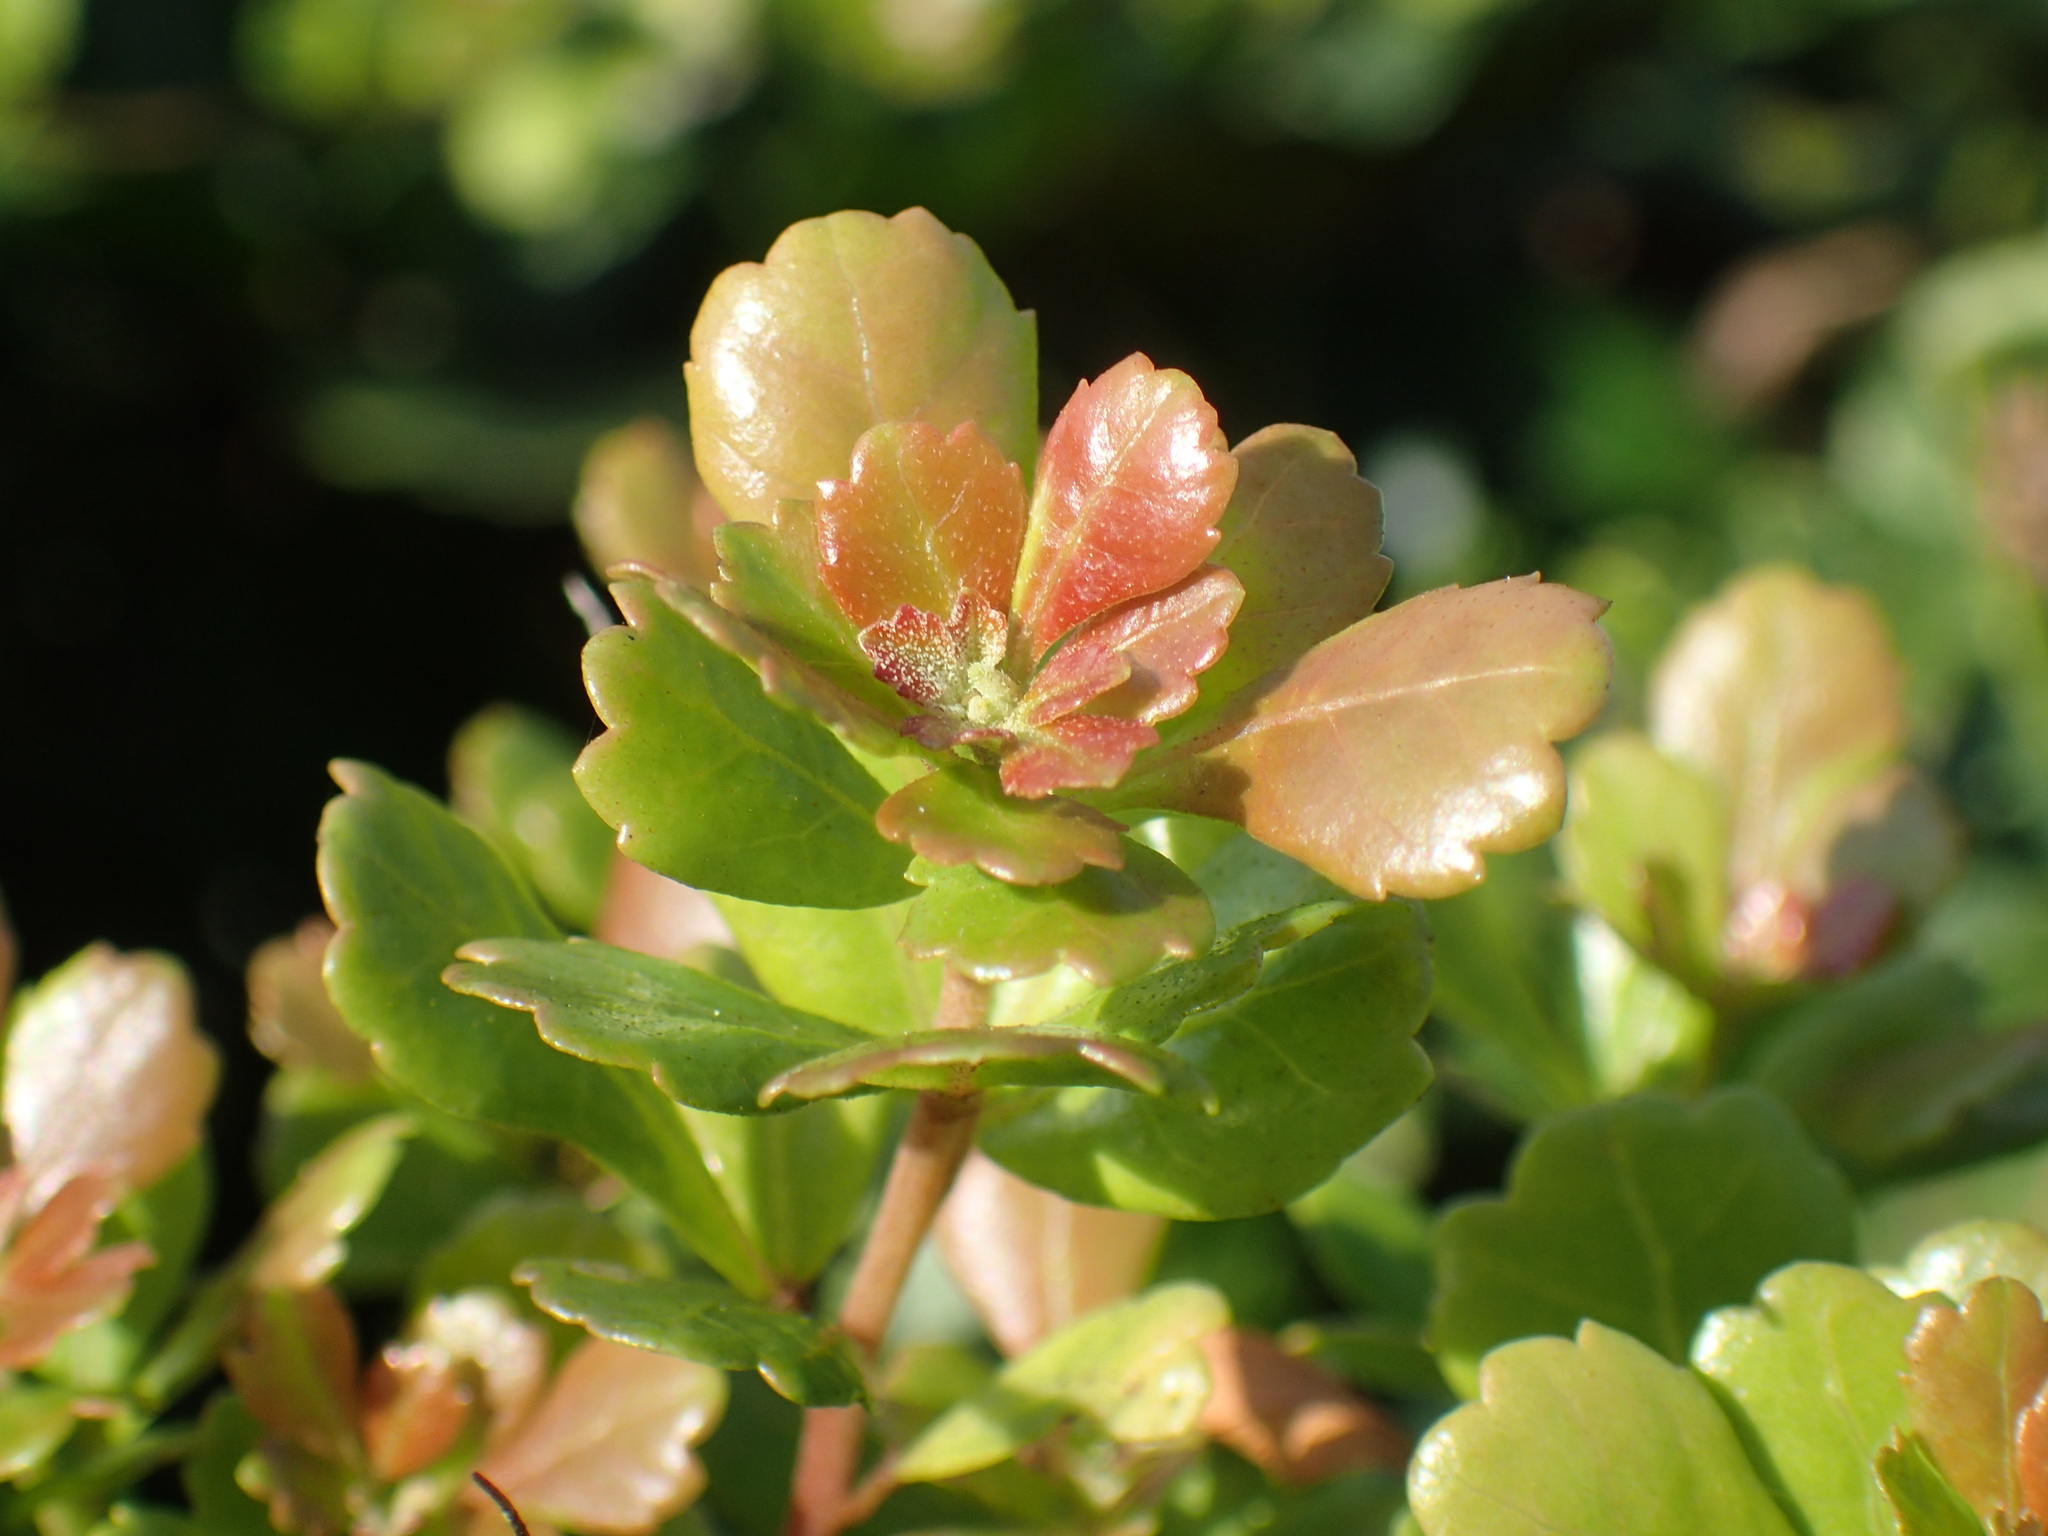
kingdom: Plantae
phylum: Tracheophyta
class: Magnoliopsida
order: Sapindales
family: Anacardiaceae
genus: Searsia
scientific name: Searsia crenata
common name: Crowberry
